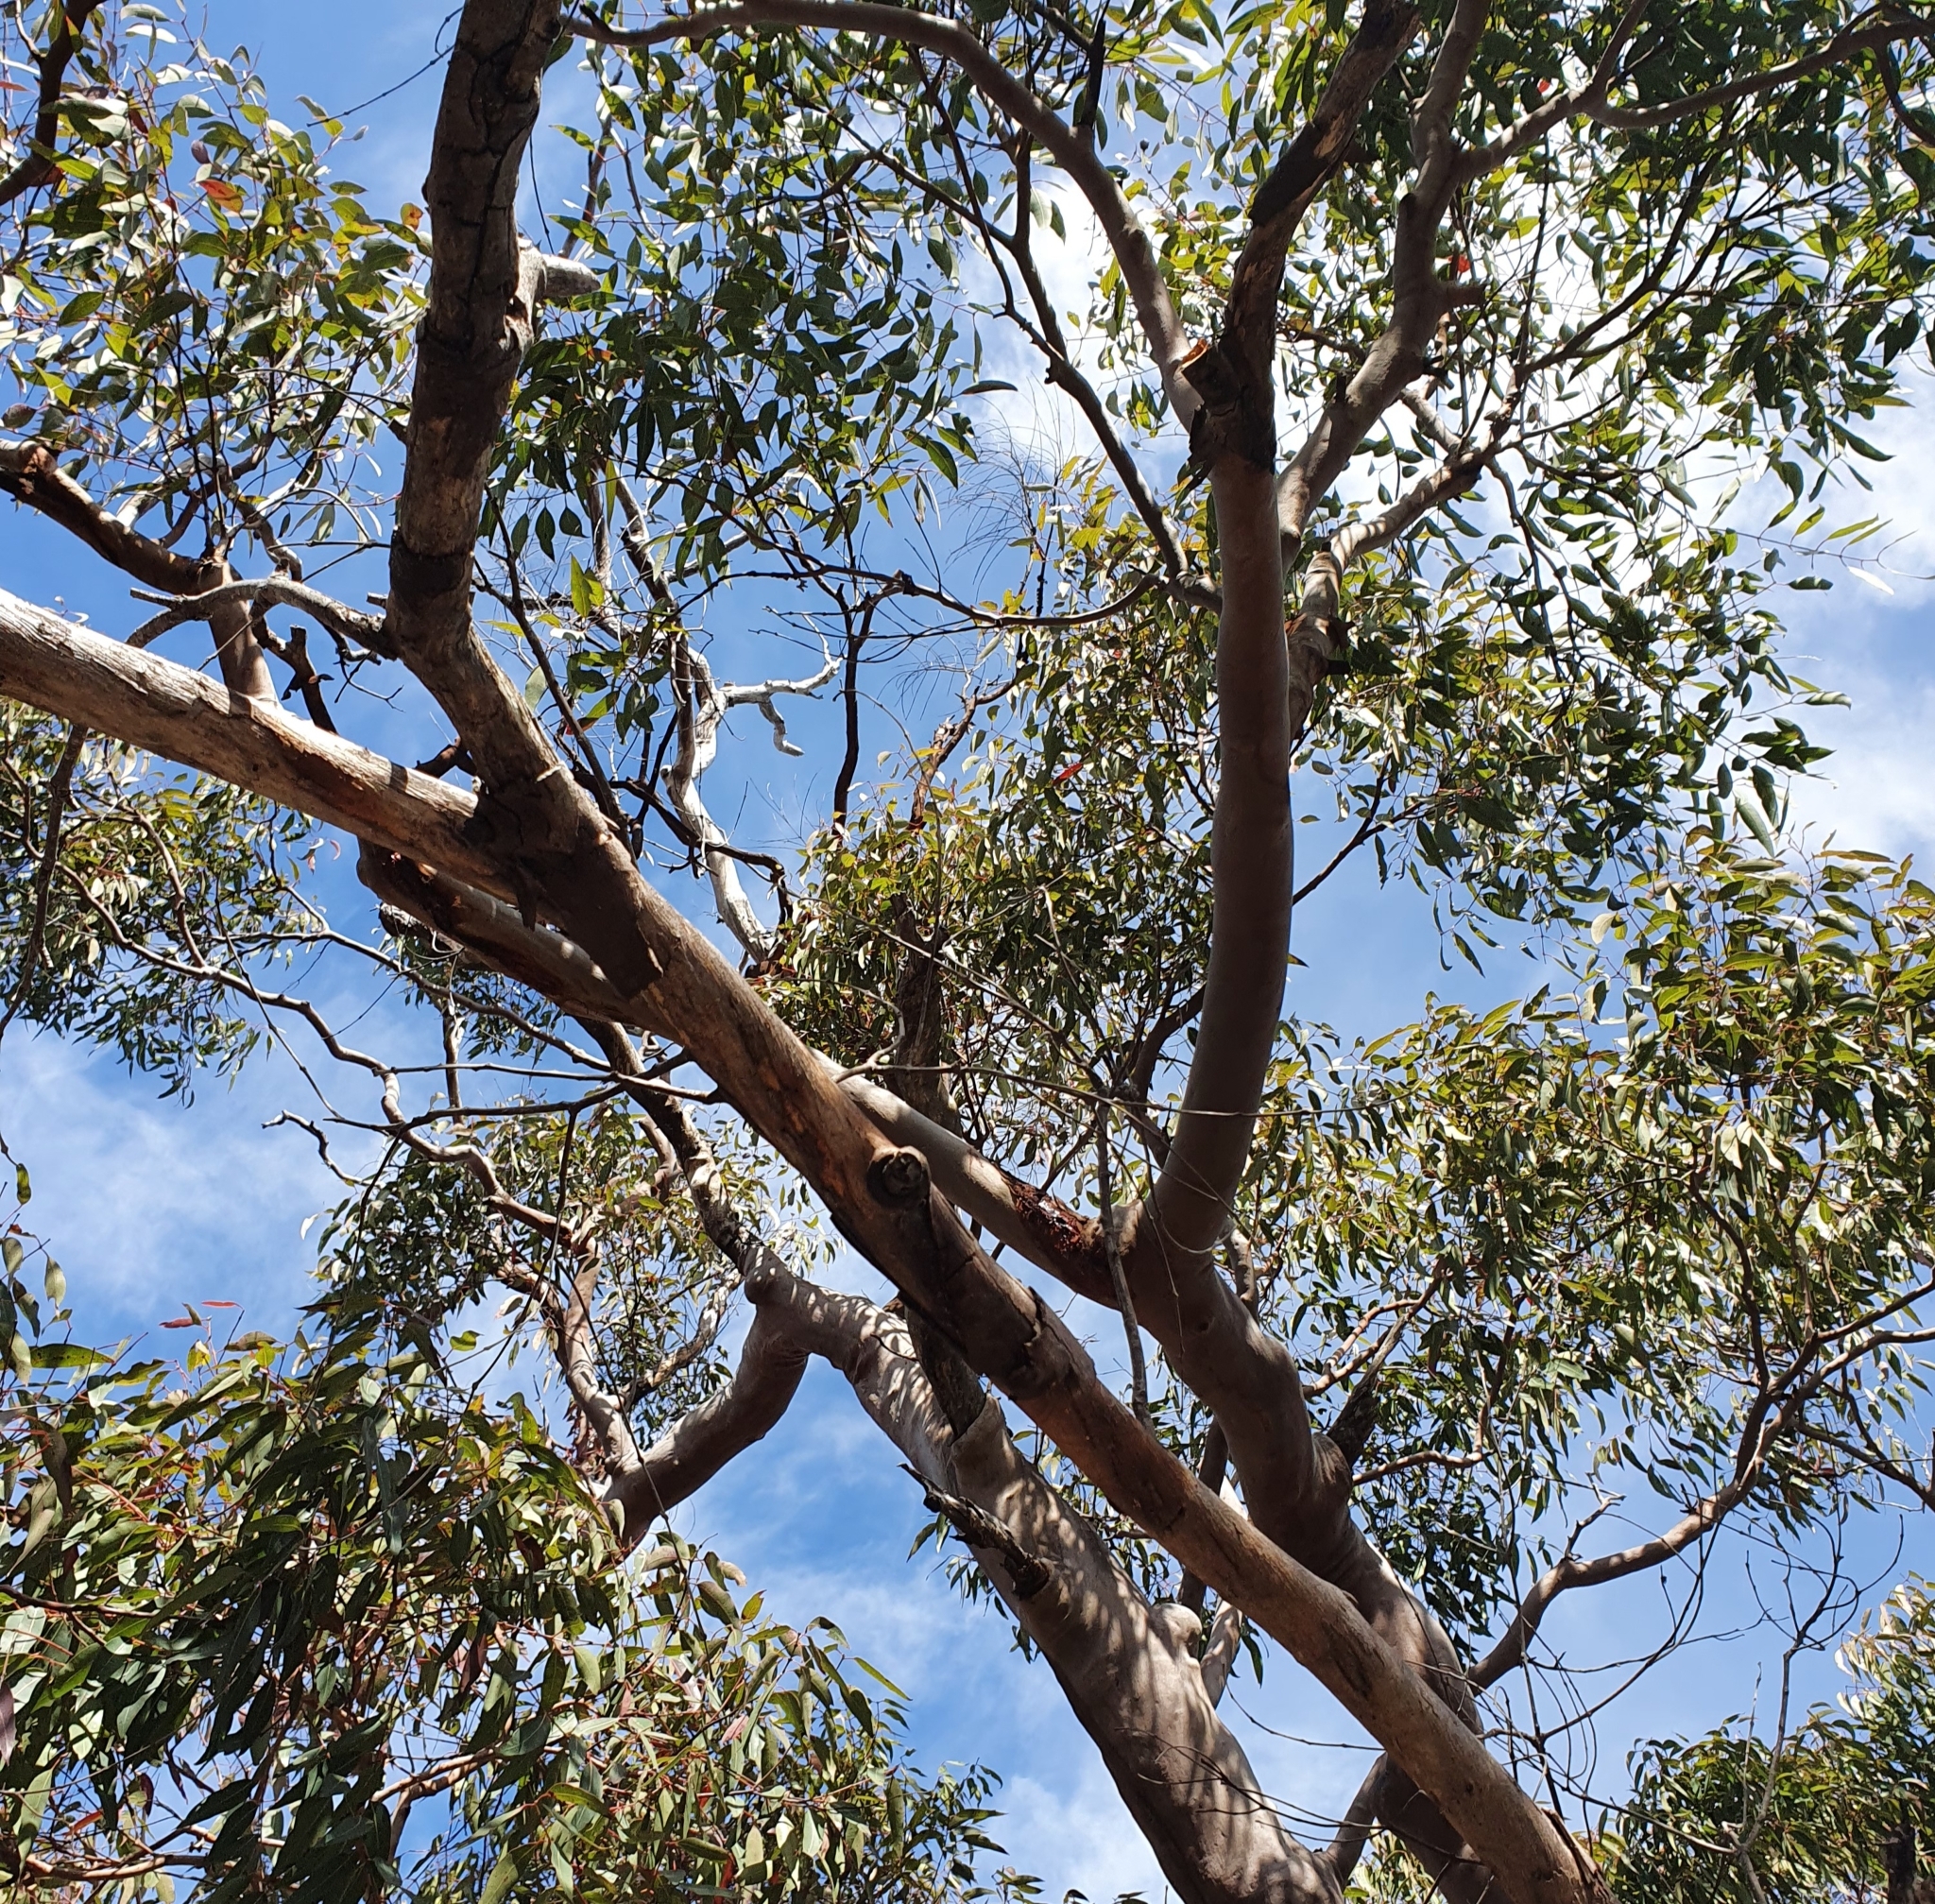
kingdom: Plantae
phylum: Tracheophyta
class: Magnoliopsida
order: Myrtales
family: Myrtaceae
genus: Angophora
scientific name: Angophora costata
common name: Gum myrtle
